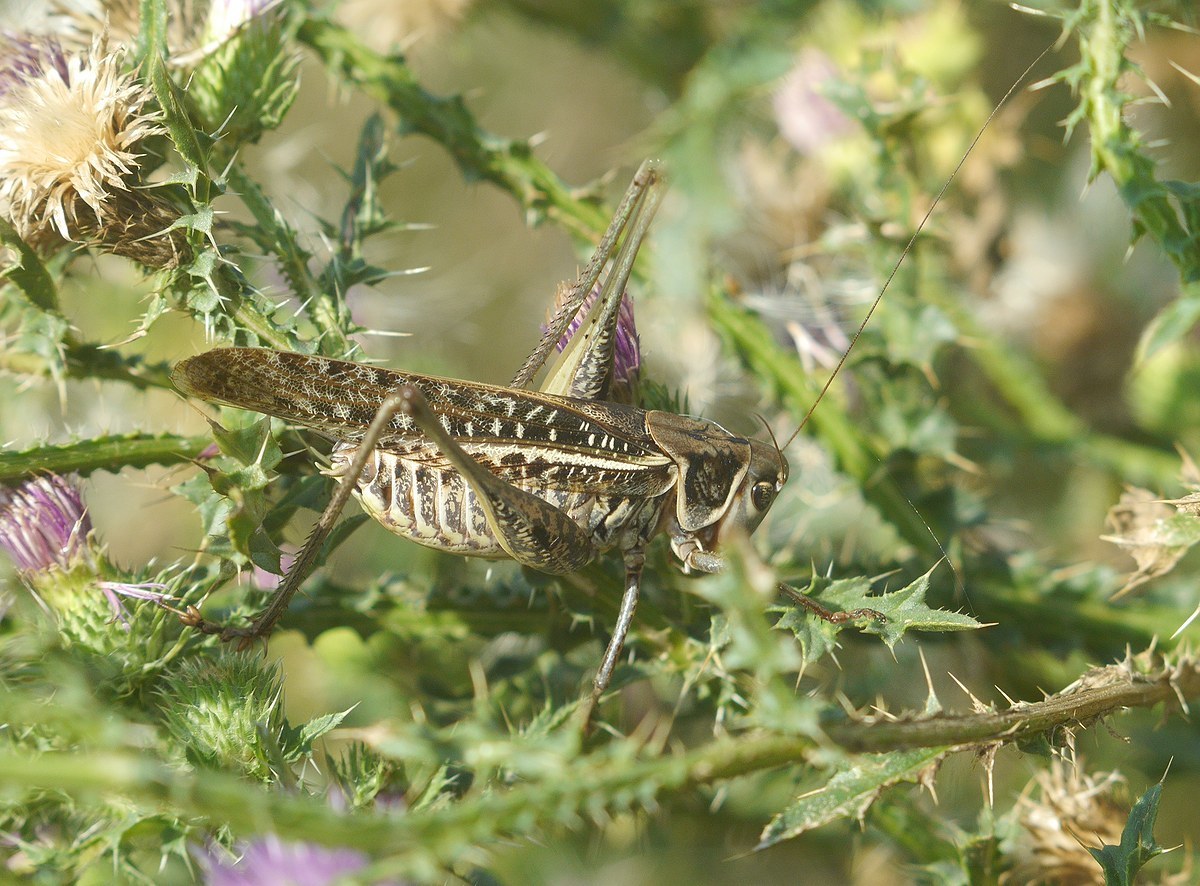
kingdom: Animalia
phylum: Arthropoda
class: Insecta
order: Orthoptera
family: Tettigoniidae
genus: Decticus
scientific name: Decticus albifrons
